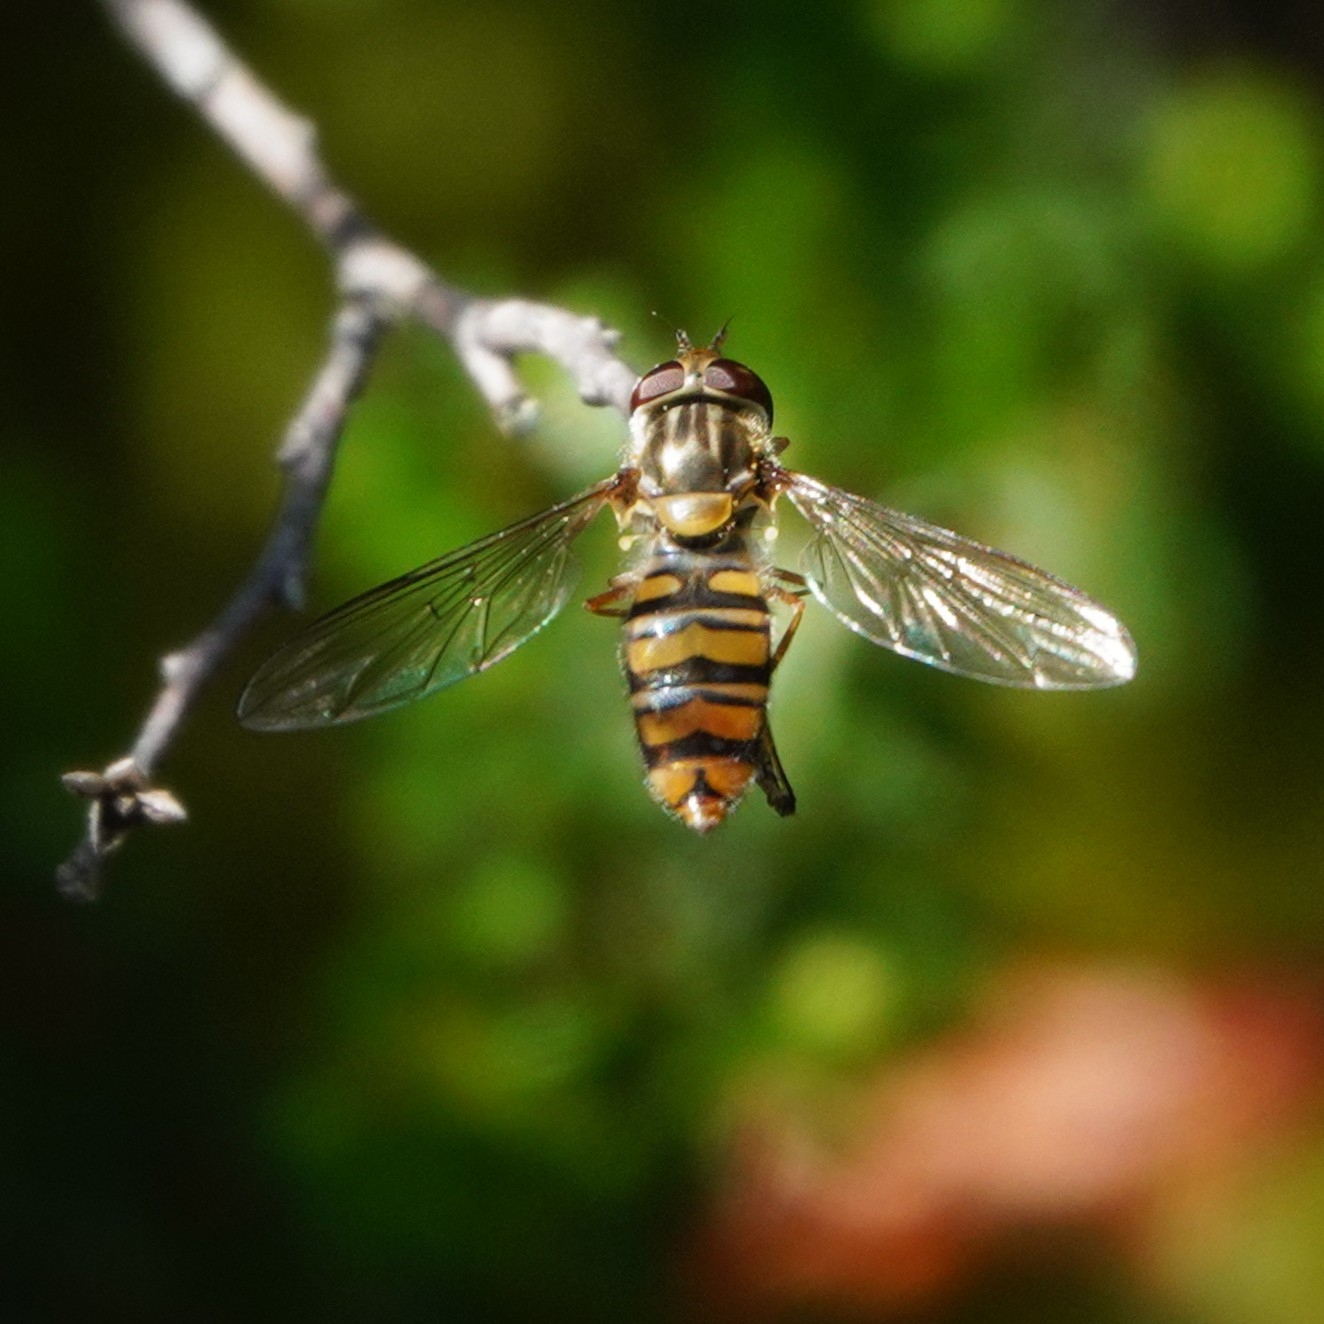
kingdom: Animalia
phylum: Arthropoda
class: Insecta
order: Diptera
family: Syrphidae
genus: Episyrphus
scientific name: Episyrphus balteatus
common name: Marmalade hoverfly
